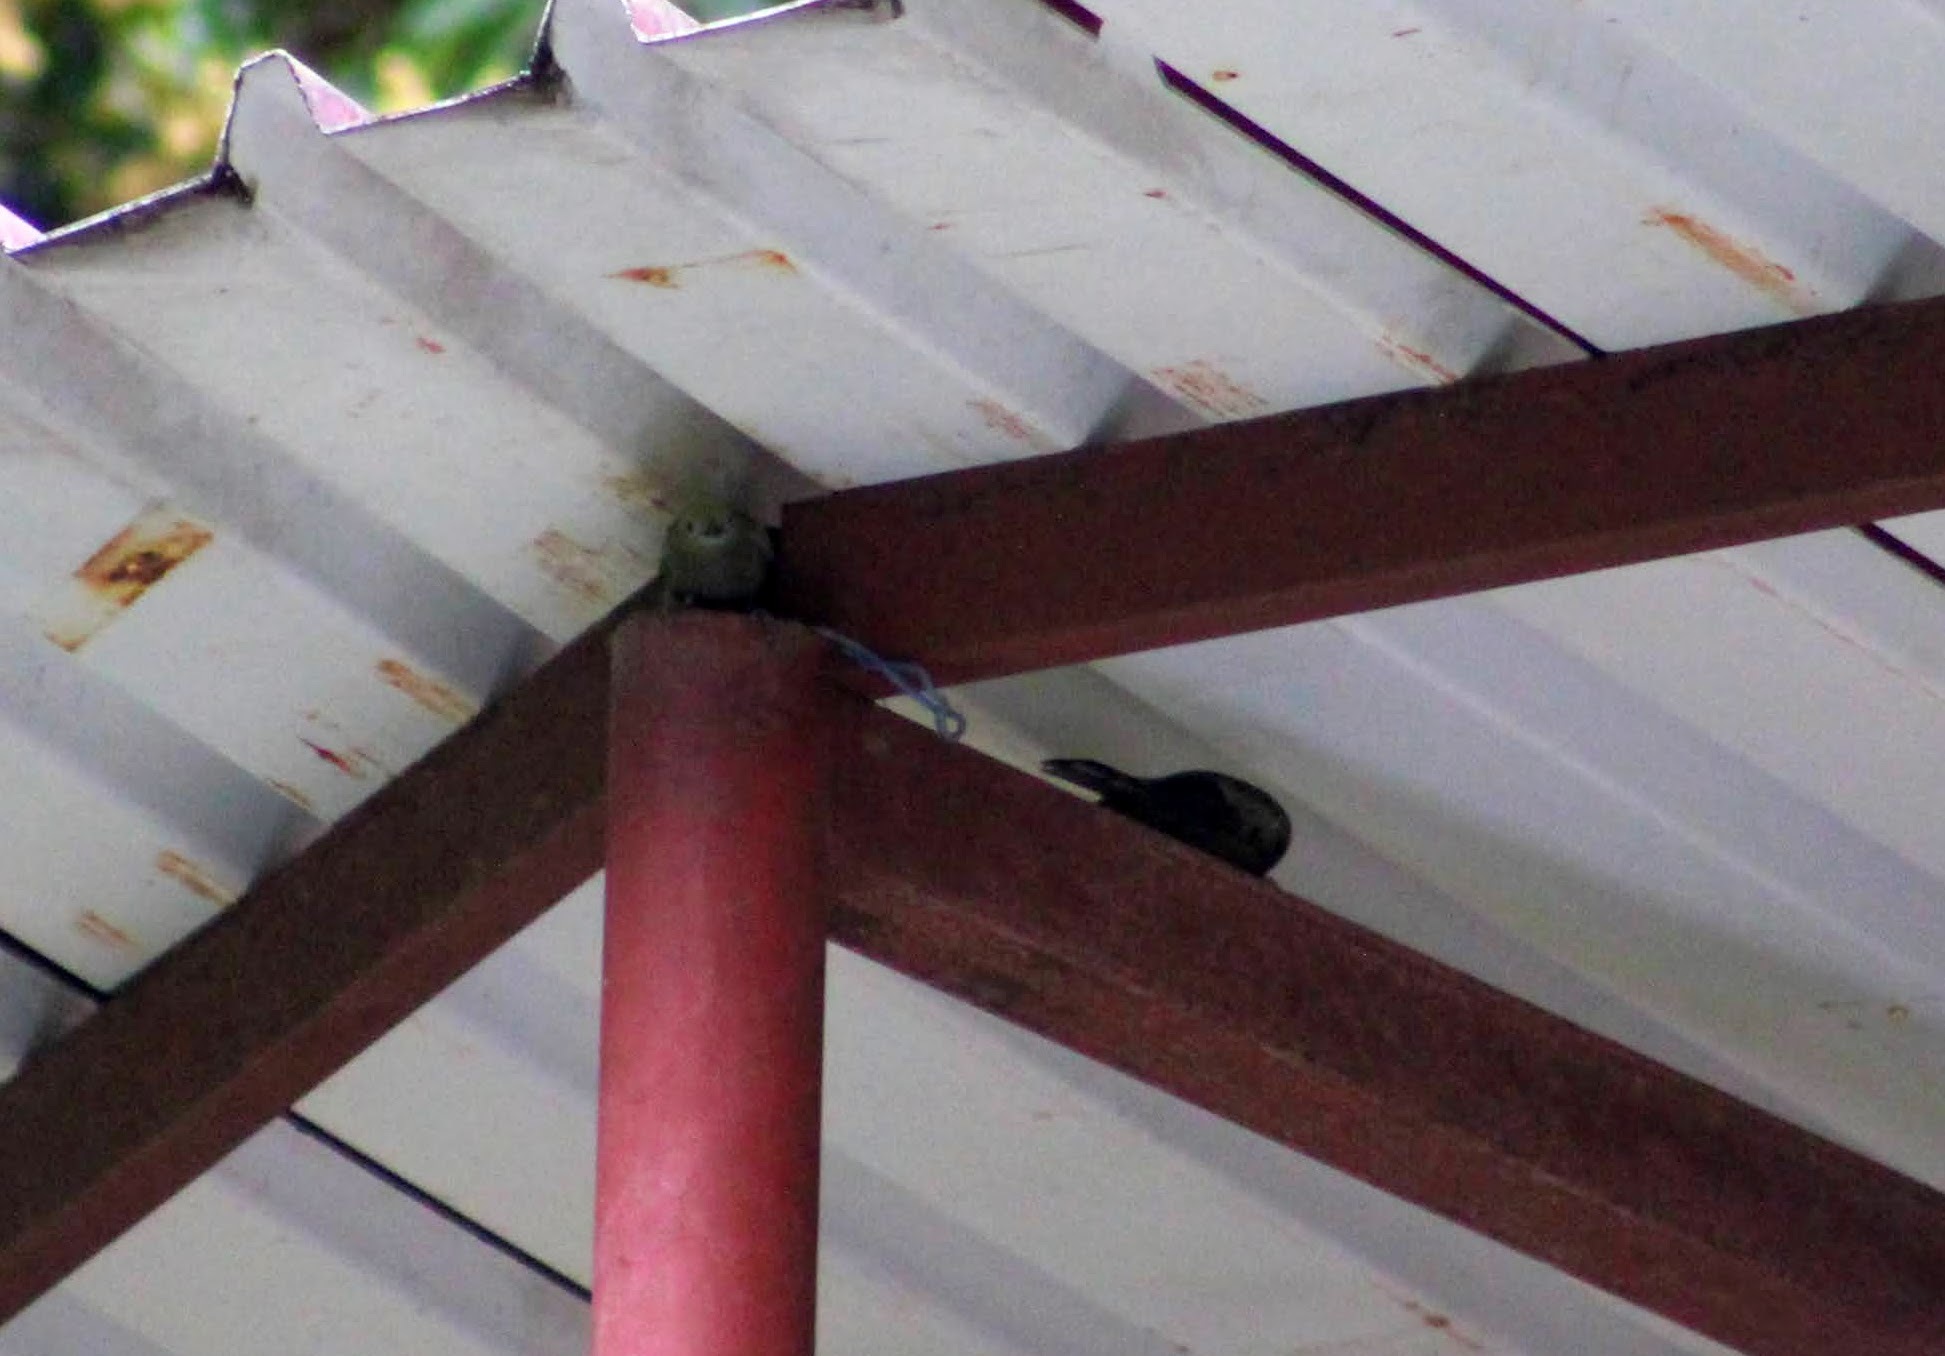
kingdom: Animalia
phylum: Chordata
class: Aves
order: Passeriformes
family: Thraupidae
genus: Thraupis
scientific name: Thraupis palmarum
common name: Palm tanager
